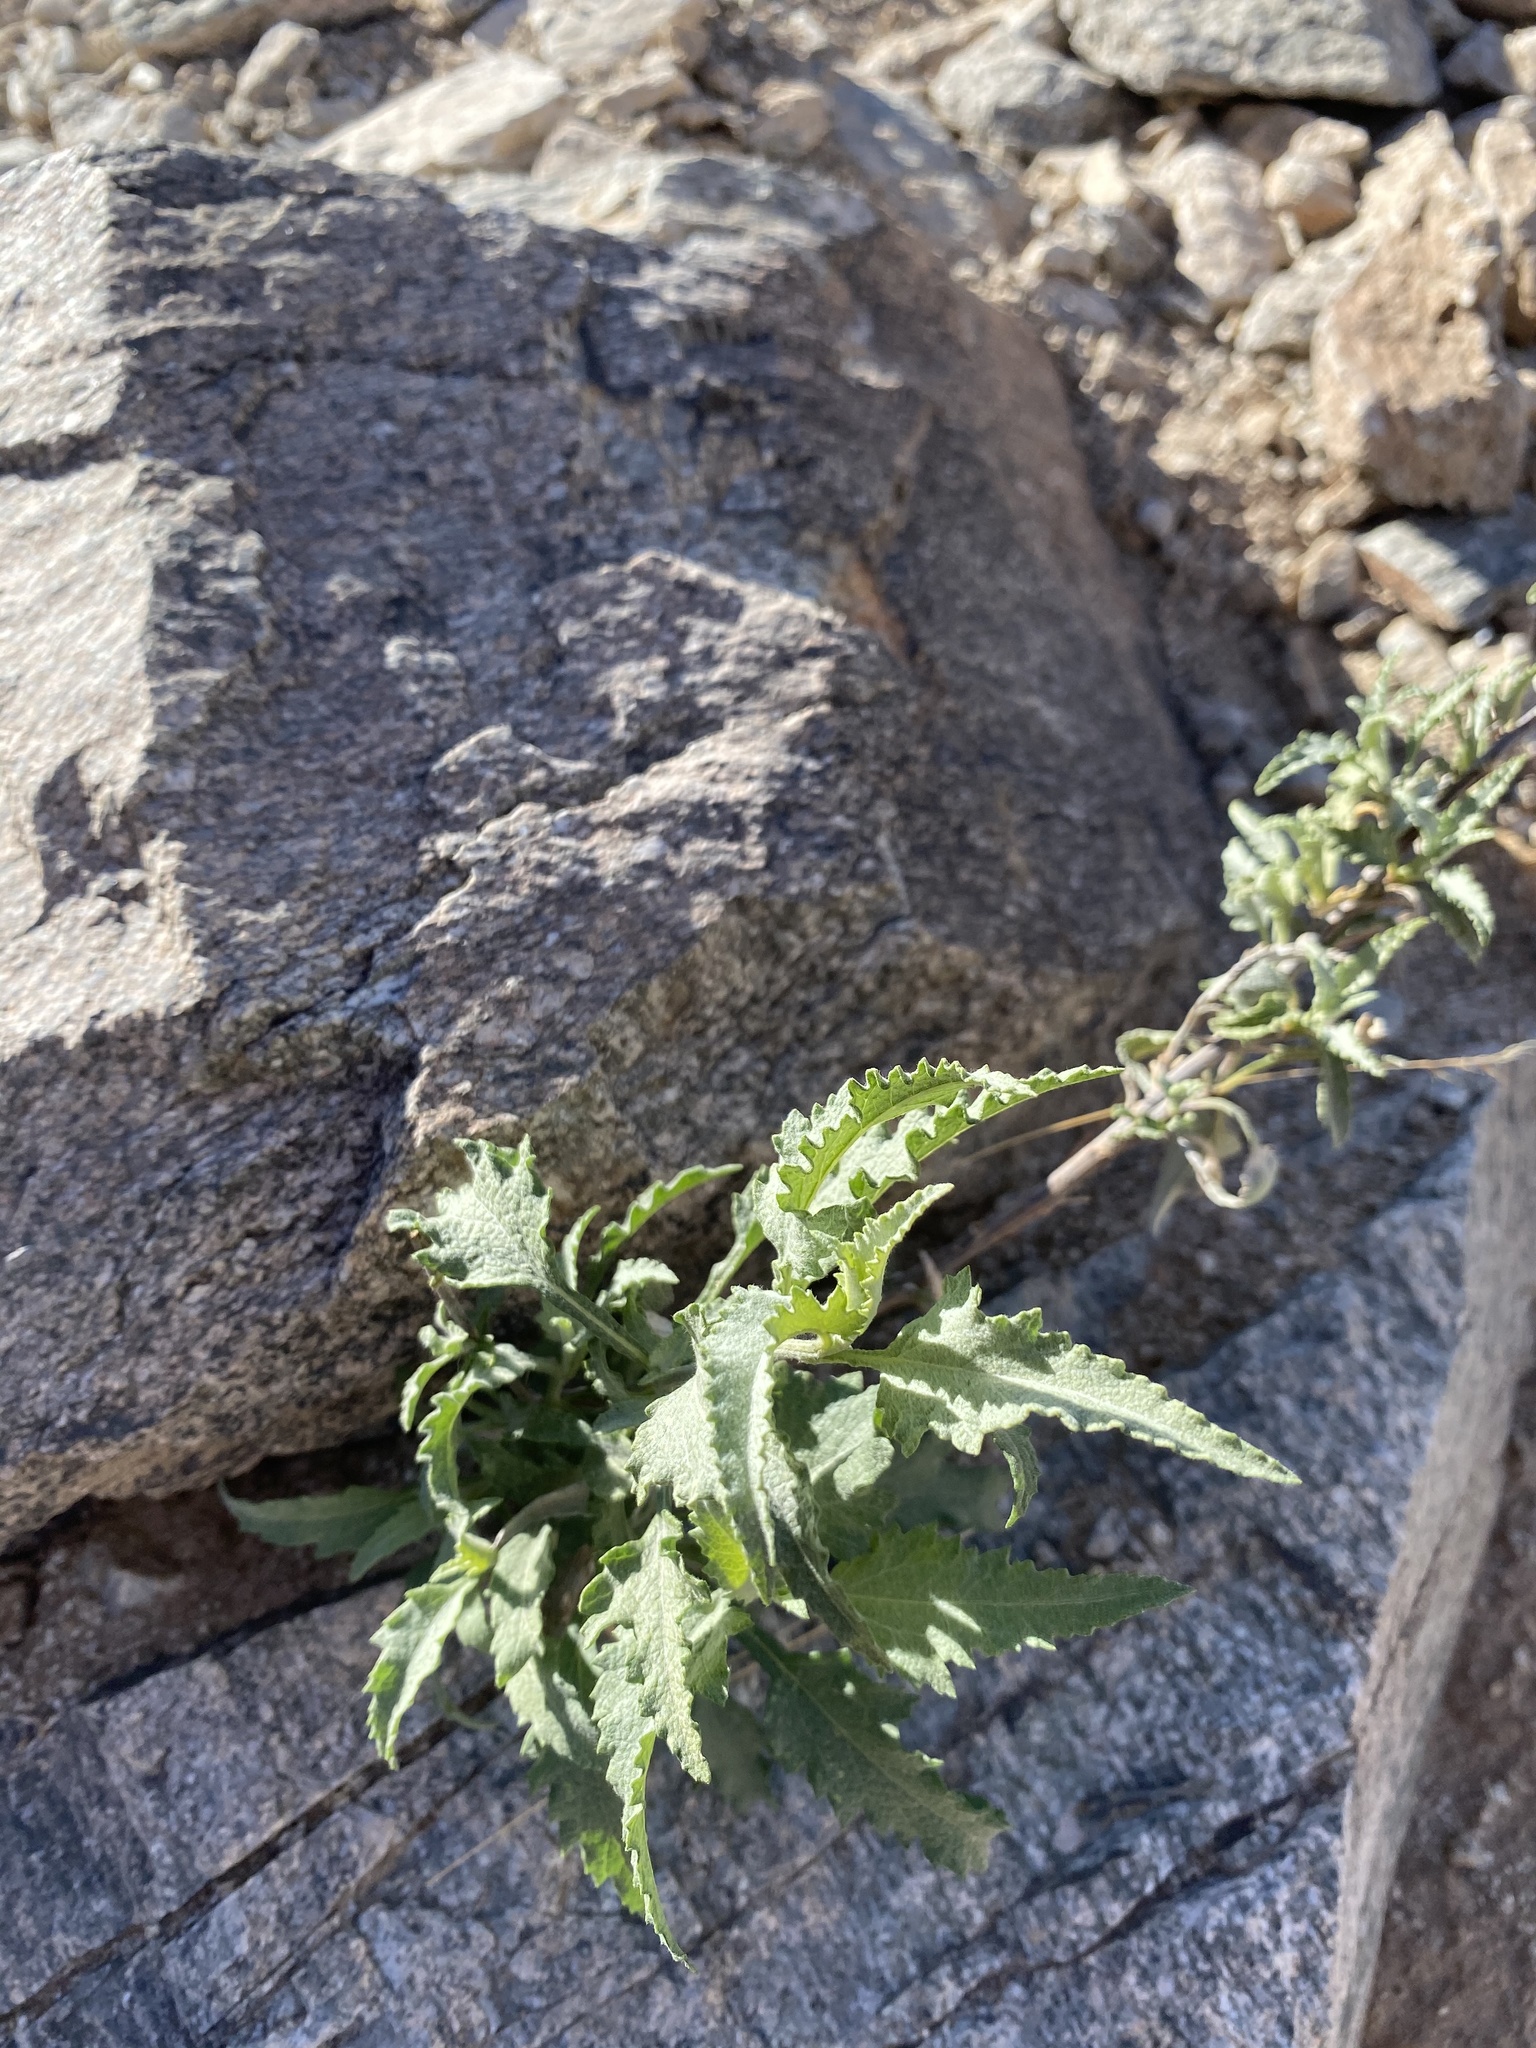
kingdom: Plantae
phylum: Tracheophyta
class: Magnoliopsida
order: Asterales
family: Asteraceae
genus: Ambrosia
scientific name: Ambrosia ambrosioides
